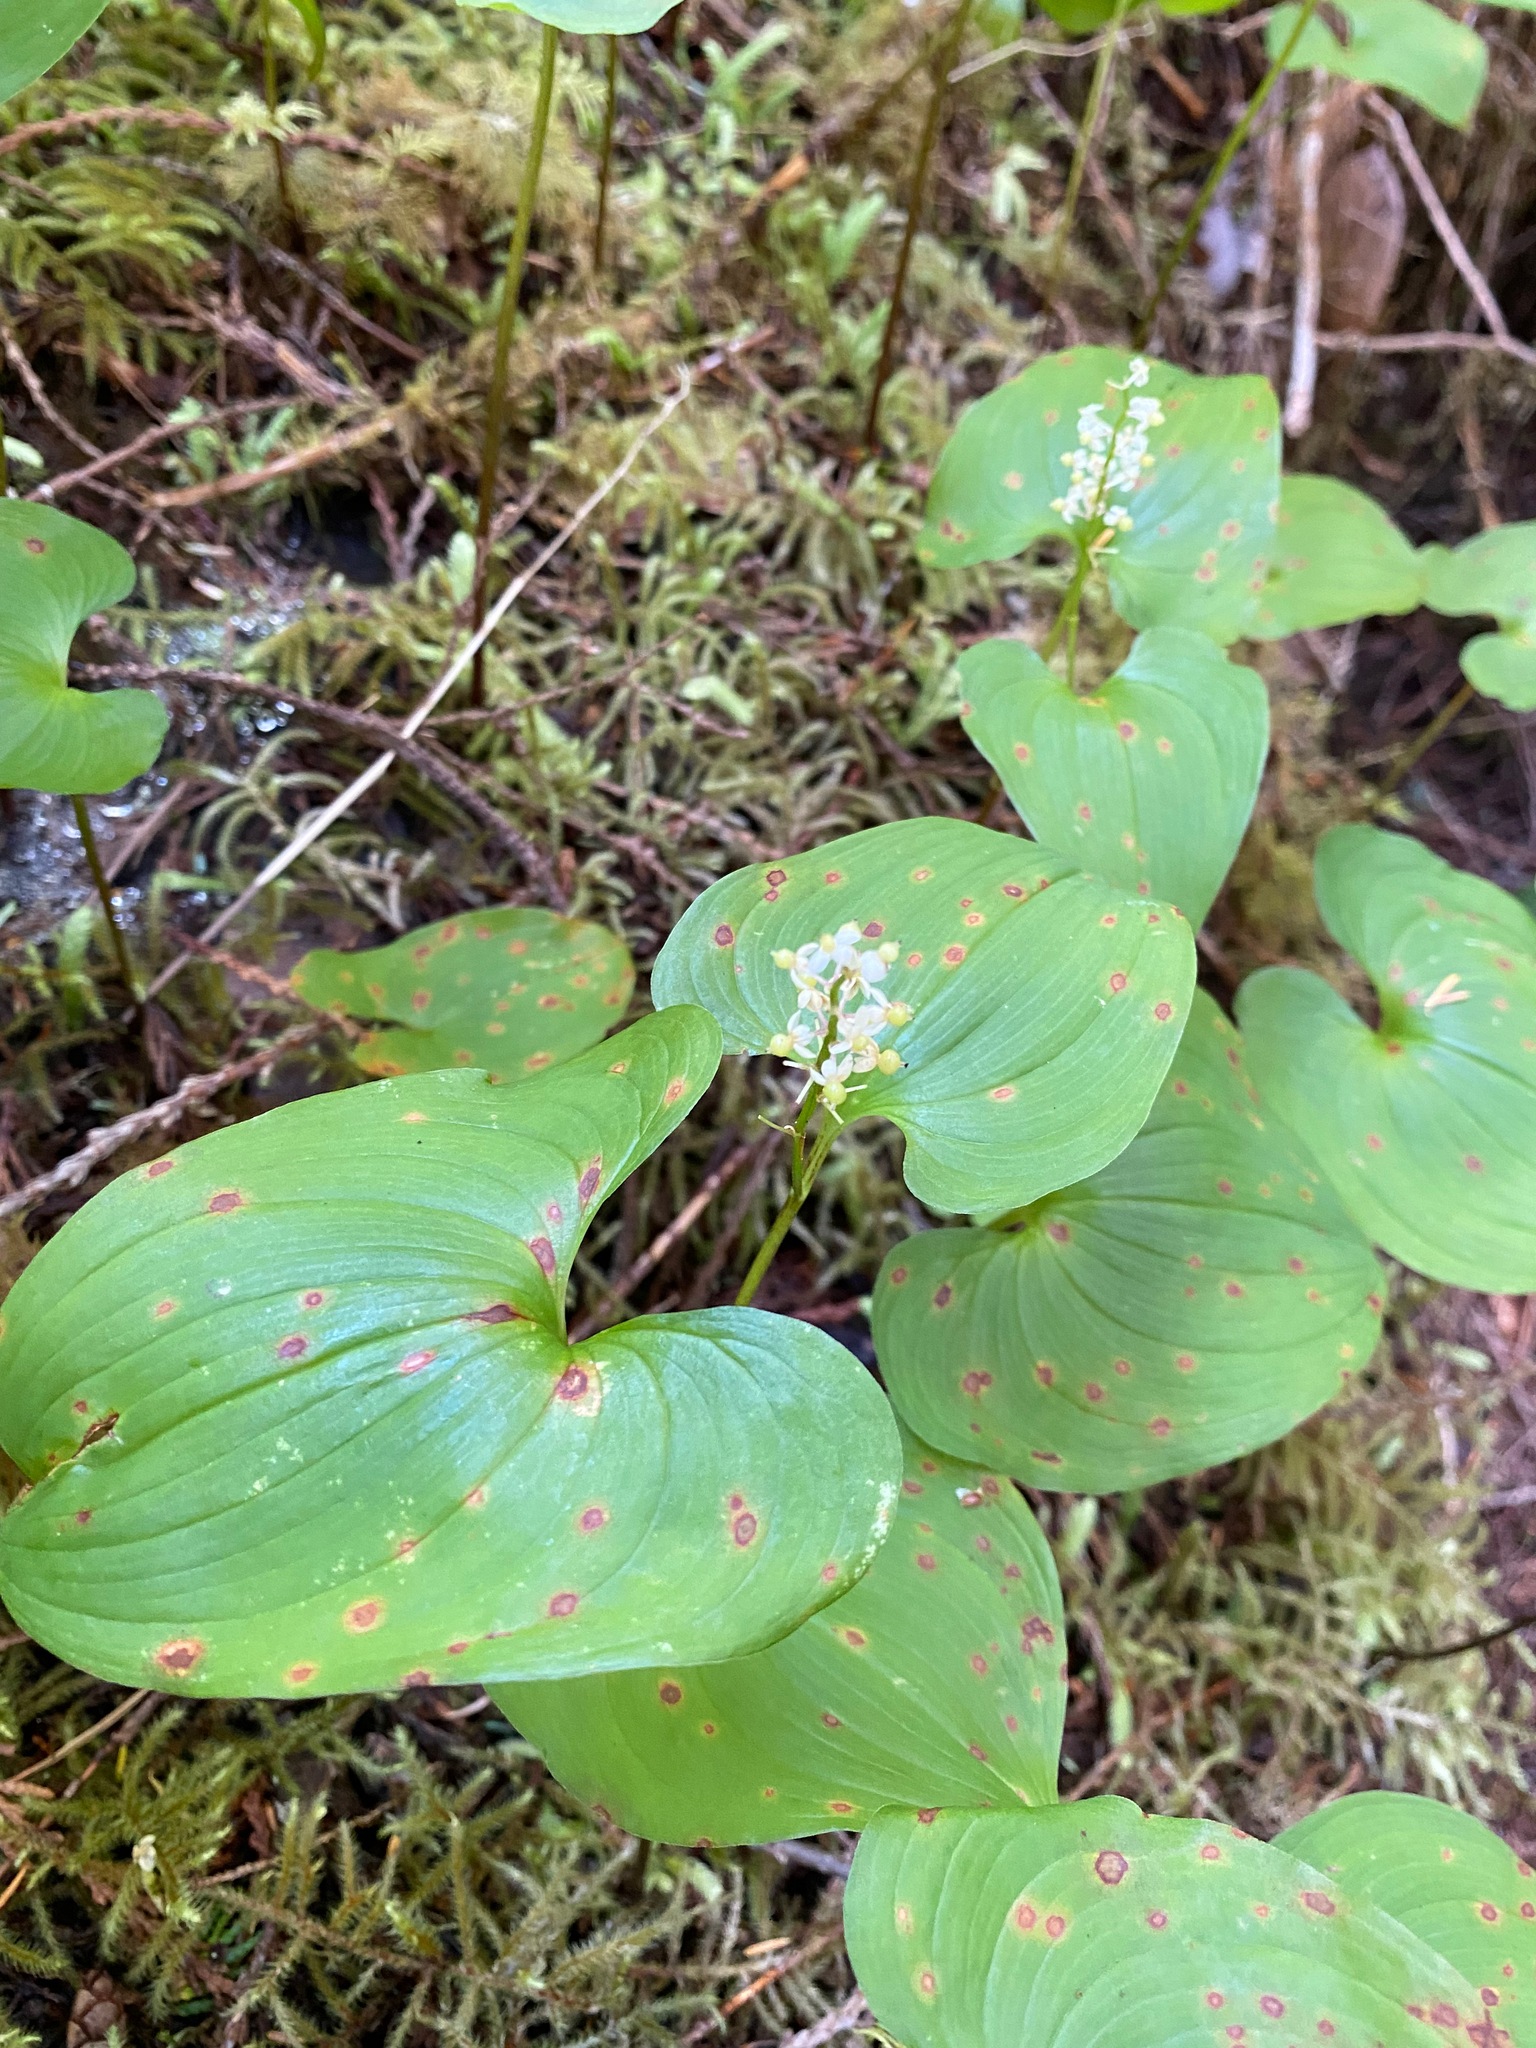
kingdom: Plantae
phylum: Tracheophyta
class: Liliopsida
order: Asparagales
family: Asparagaceae
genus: Maianthemum
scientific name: Maianthemum dilatatum
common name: False lily-of-the-valley
